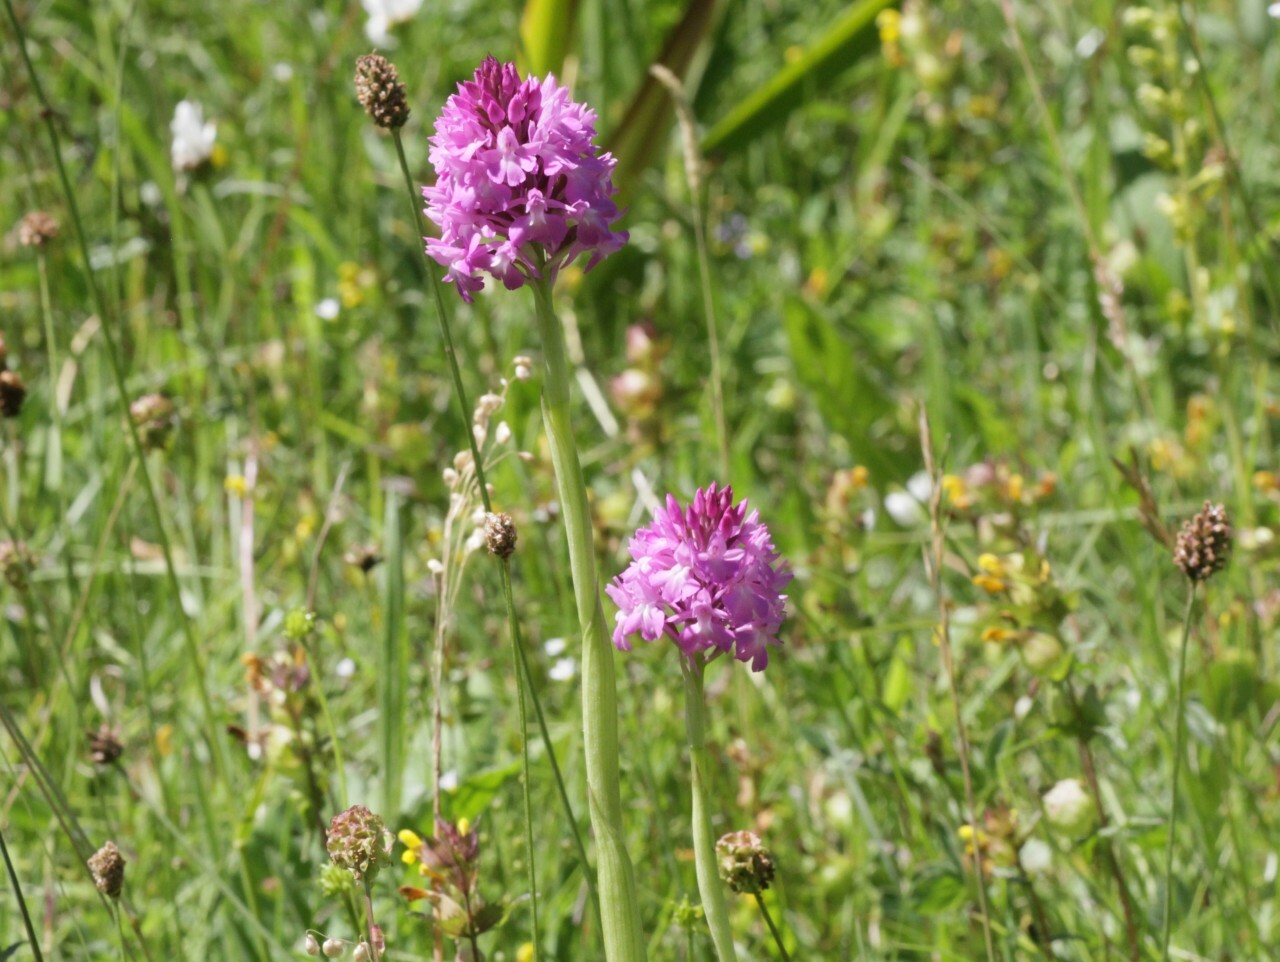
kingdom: Plantae
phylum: Tracheophyta
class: Liliopsida
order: Asparagales
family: Orchidaceae
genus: Anacamptis
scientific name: Anacamptis pyramidalis
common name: Pyramidal orchid
